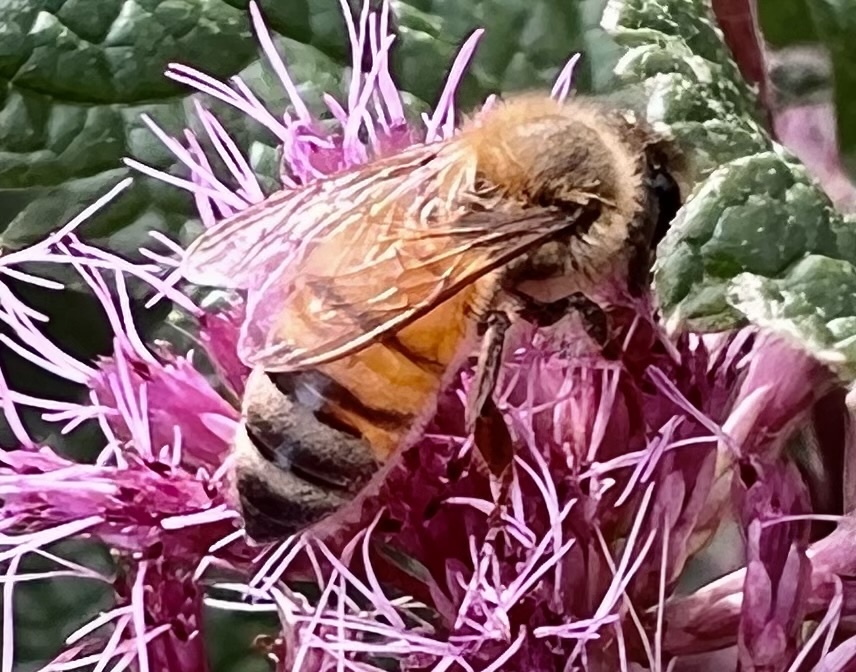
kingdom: Animalia
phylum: Arthropoda
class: Insecta
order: Hymenoptera
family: Apidae
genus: Apis
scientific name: Apis mellifera
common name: Honey bee
